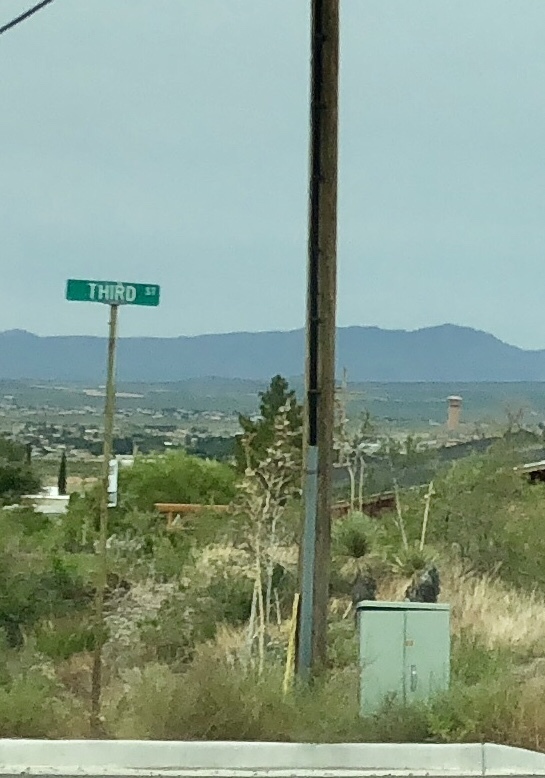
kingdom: Plantae
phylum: Tracheophyta
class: Liliopsida
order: Asparagales
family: Asparagaceae
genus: Yucca
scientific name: Yucca elata
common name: Palmella
